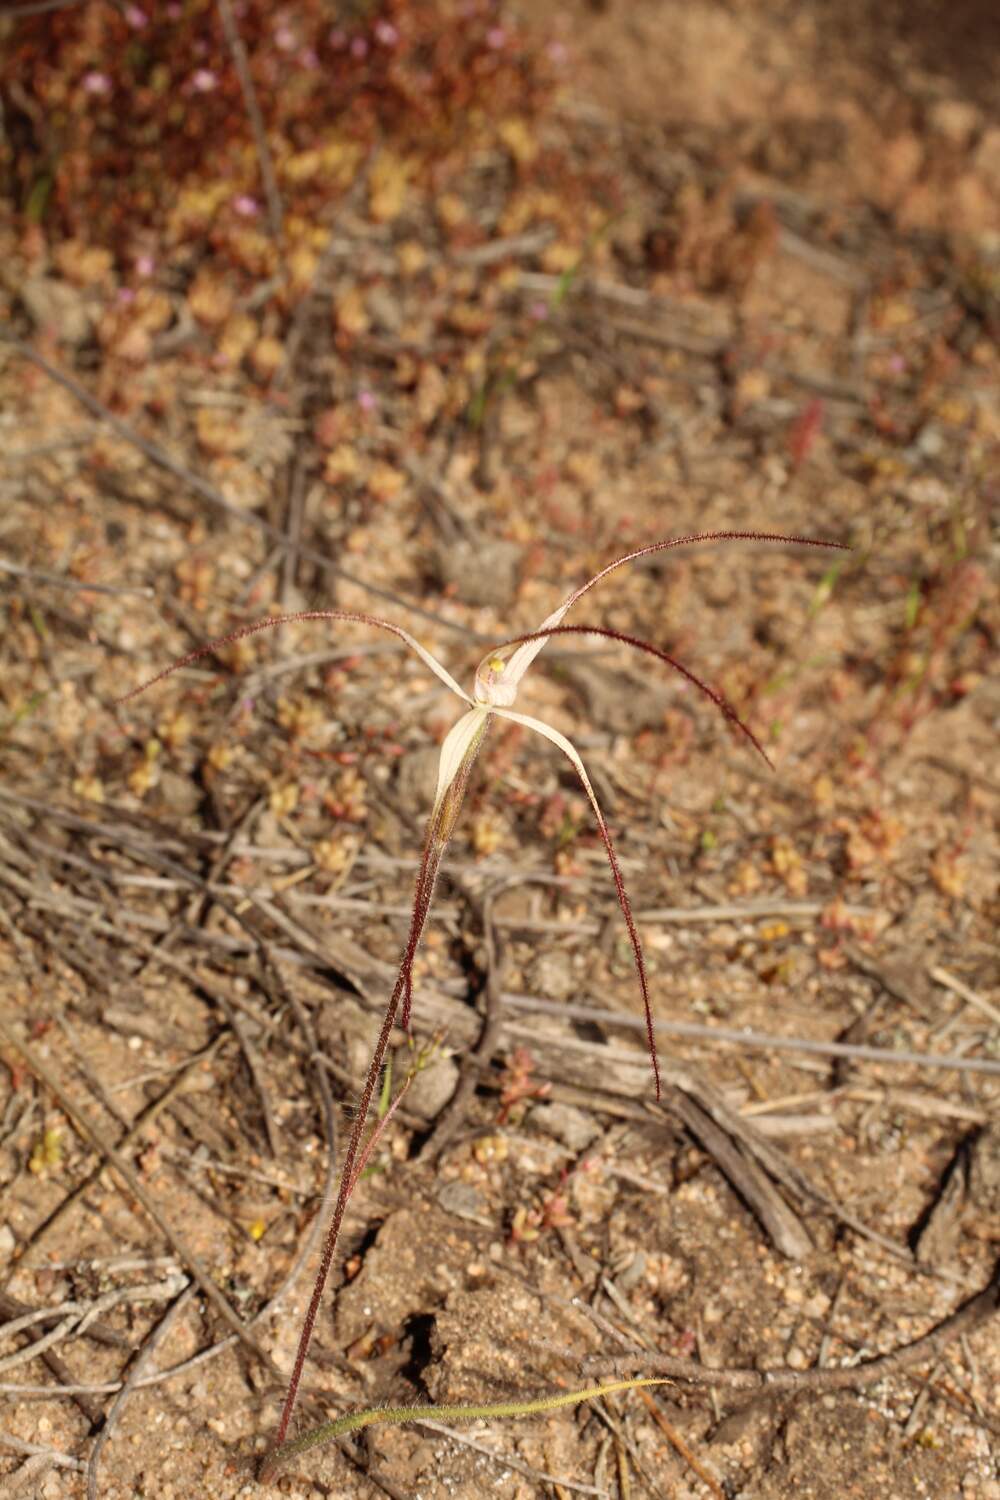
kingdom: Plantae
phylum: Tracheophyta
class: Liliopsida
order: Asparagales
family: Orchidaceae
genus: Caladenia
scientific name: Caladenia microchila
